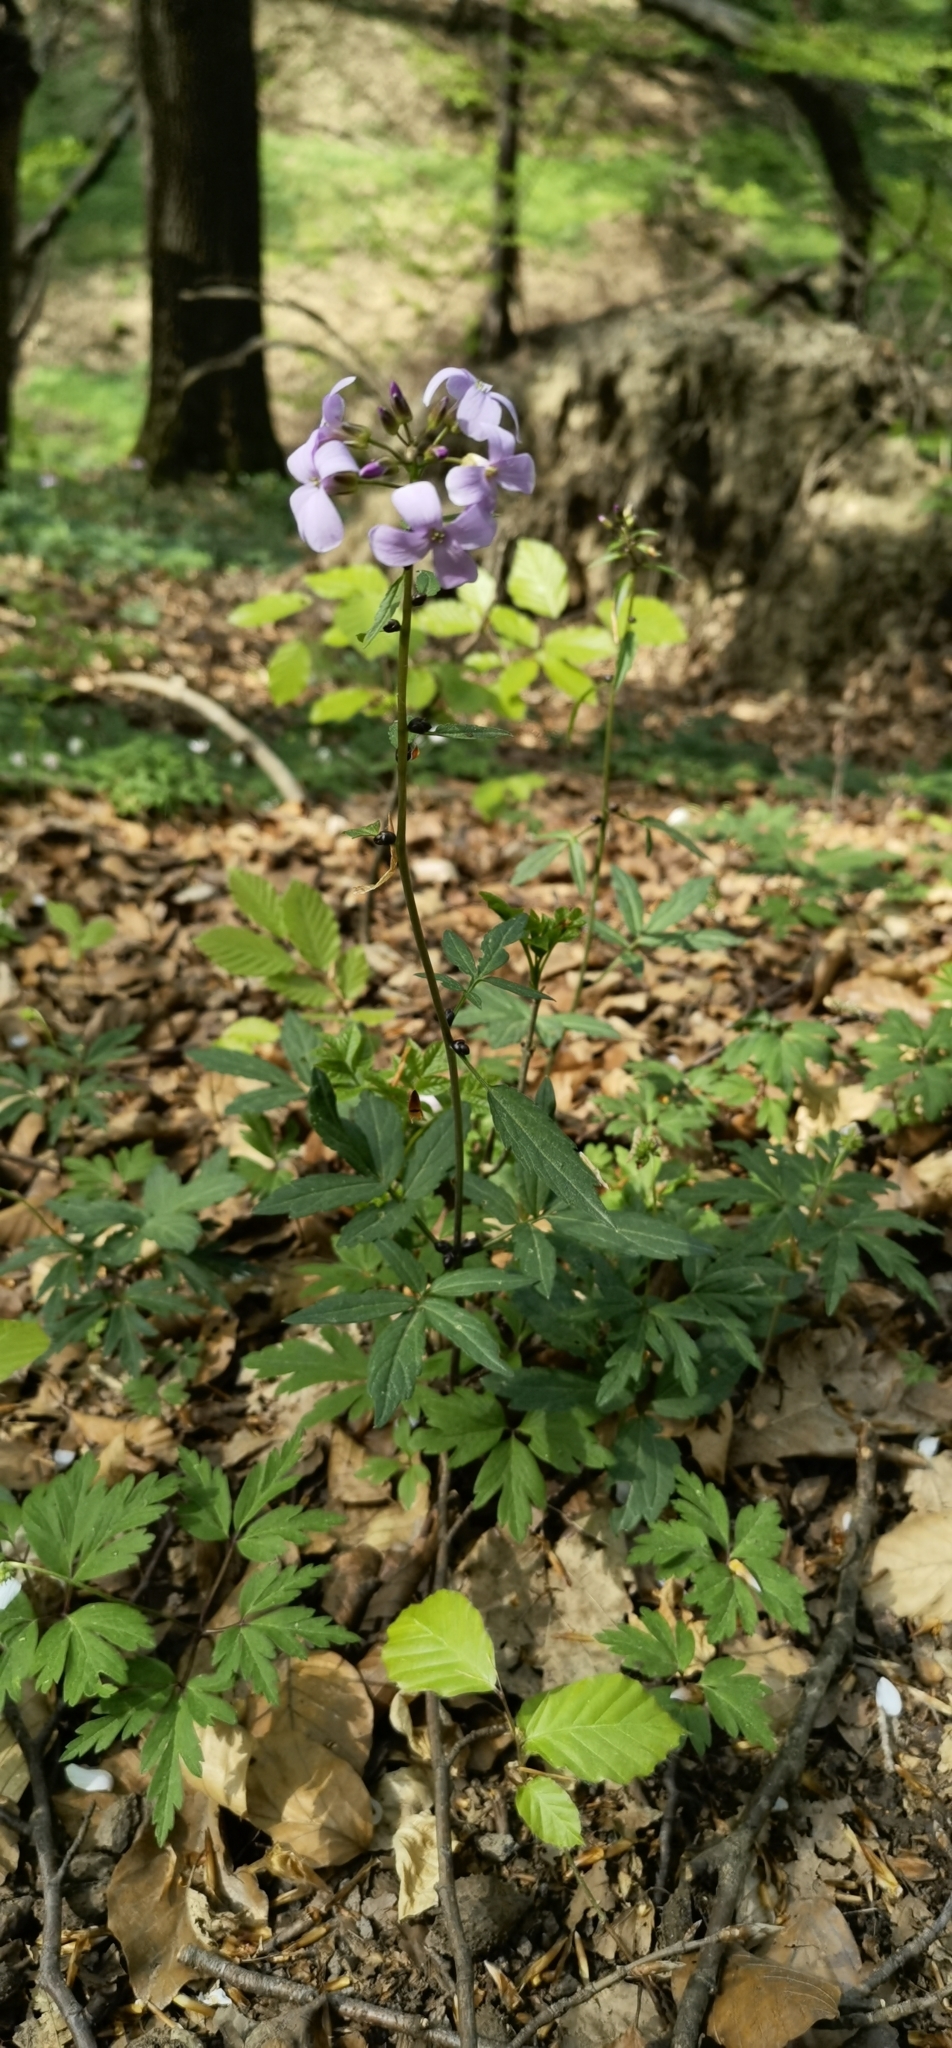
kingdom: Plantae
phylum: Tracheophyta
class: Magnoliopsida
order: Brassicales
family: Brassicaceae
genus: Cardamine
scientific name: Cardamine bulbifera
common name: Coralroot bittercress
